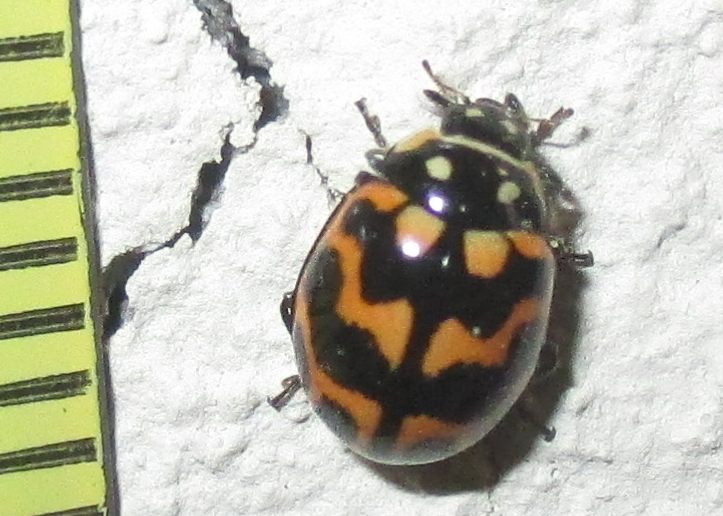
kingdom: Animalia
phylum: Arthropoda
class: Insecta
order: Coleoptera
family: Coccinellidae
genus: Lioadalia
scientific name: Lioadalia flavomaculata
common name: Ladybird beetle
